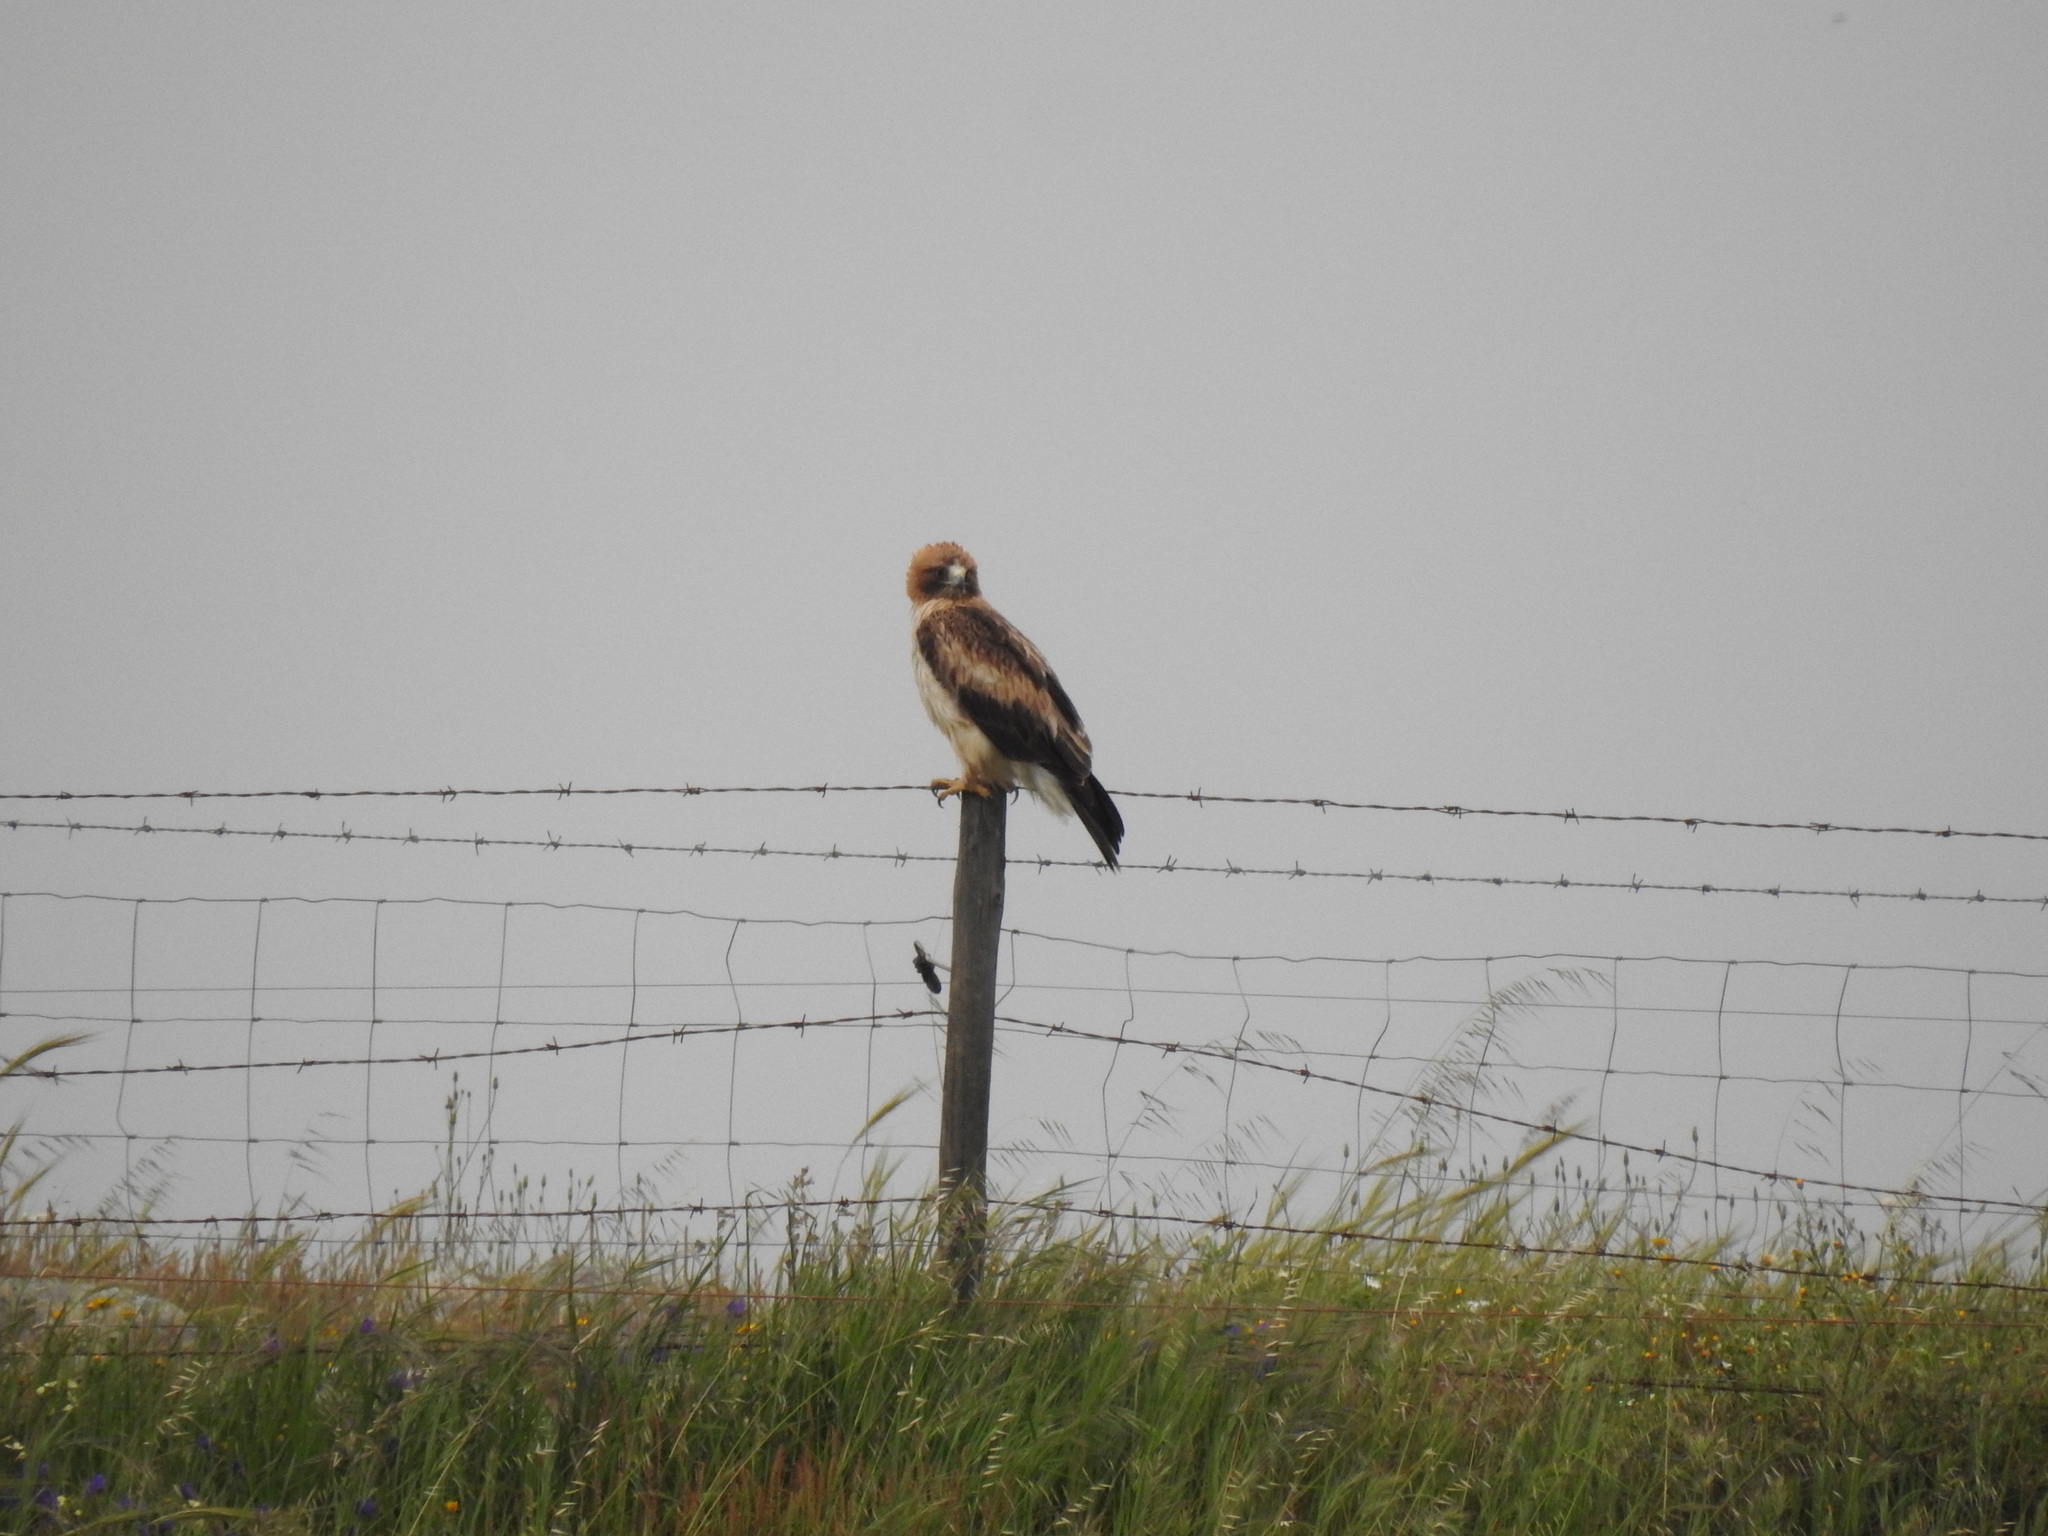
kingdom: Animalia
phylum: Chordata
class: Aves
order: Accipitriformes
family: Accipitridae
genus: Hieraaetus
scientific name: Hieraaetus pennatus
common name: Booted eagle
